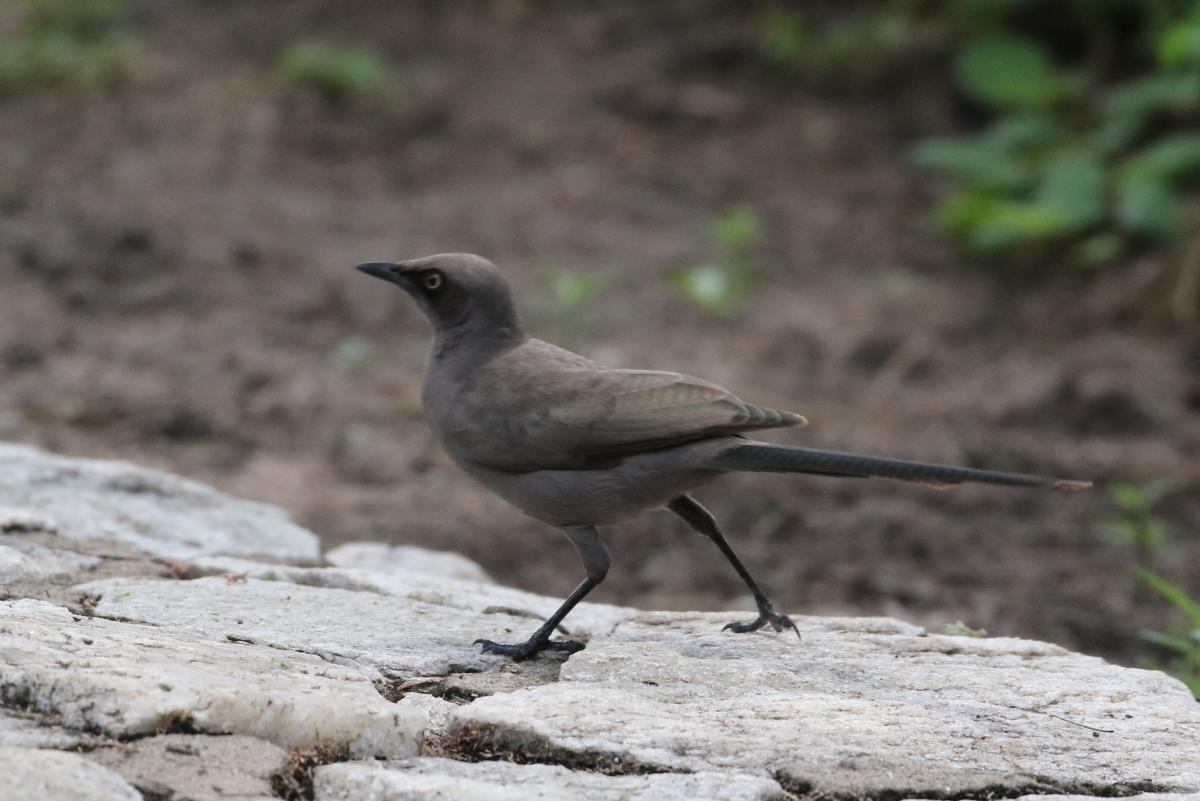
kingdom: Animalia
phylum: Chordata
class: Aves
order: Passeriformes
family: Sturnidae
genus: Lamprotornis
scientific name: Lamprotornis unicolor
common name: Ashy starling
